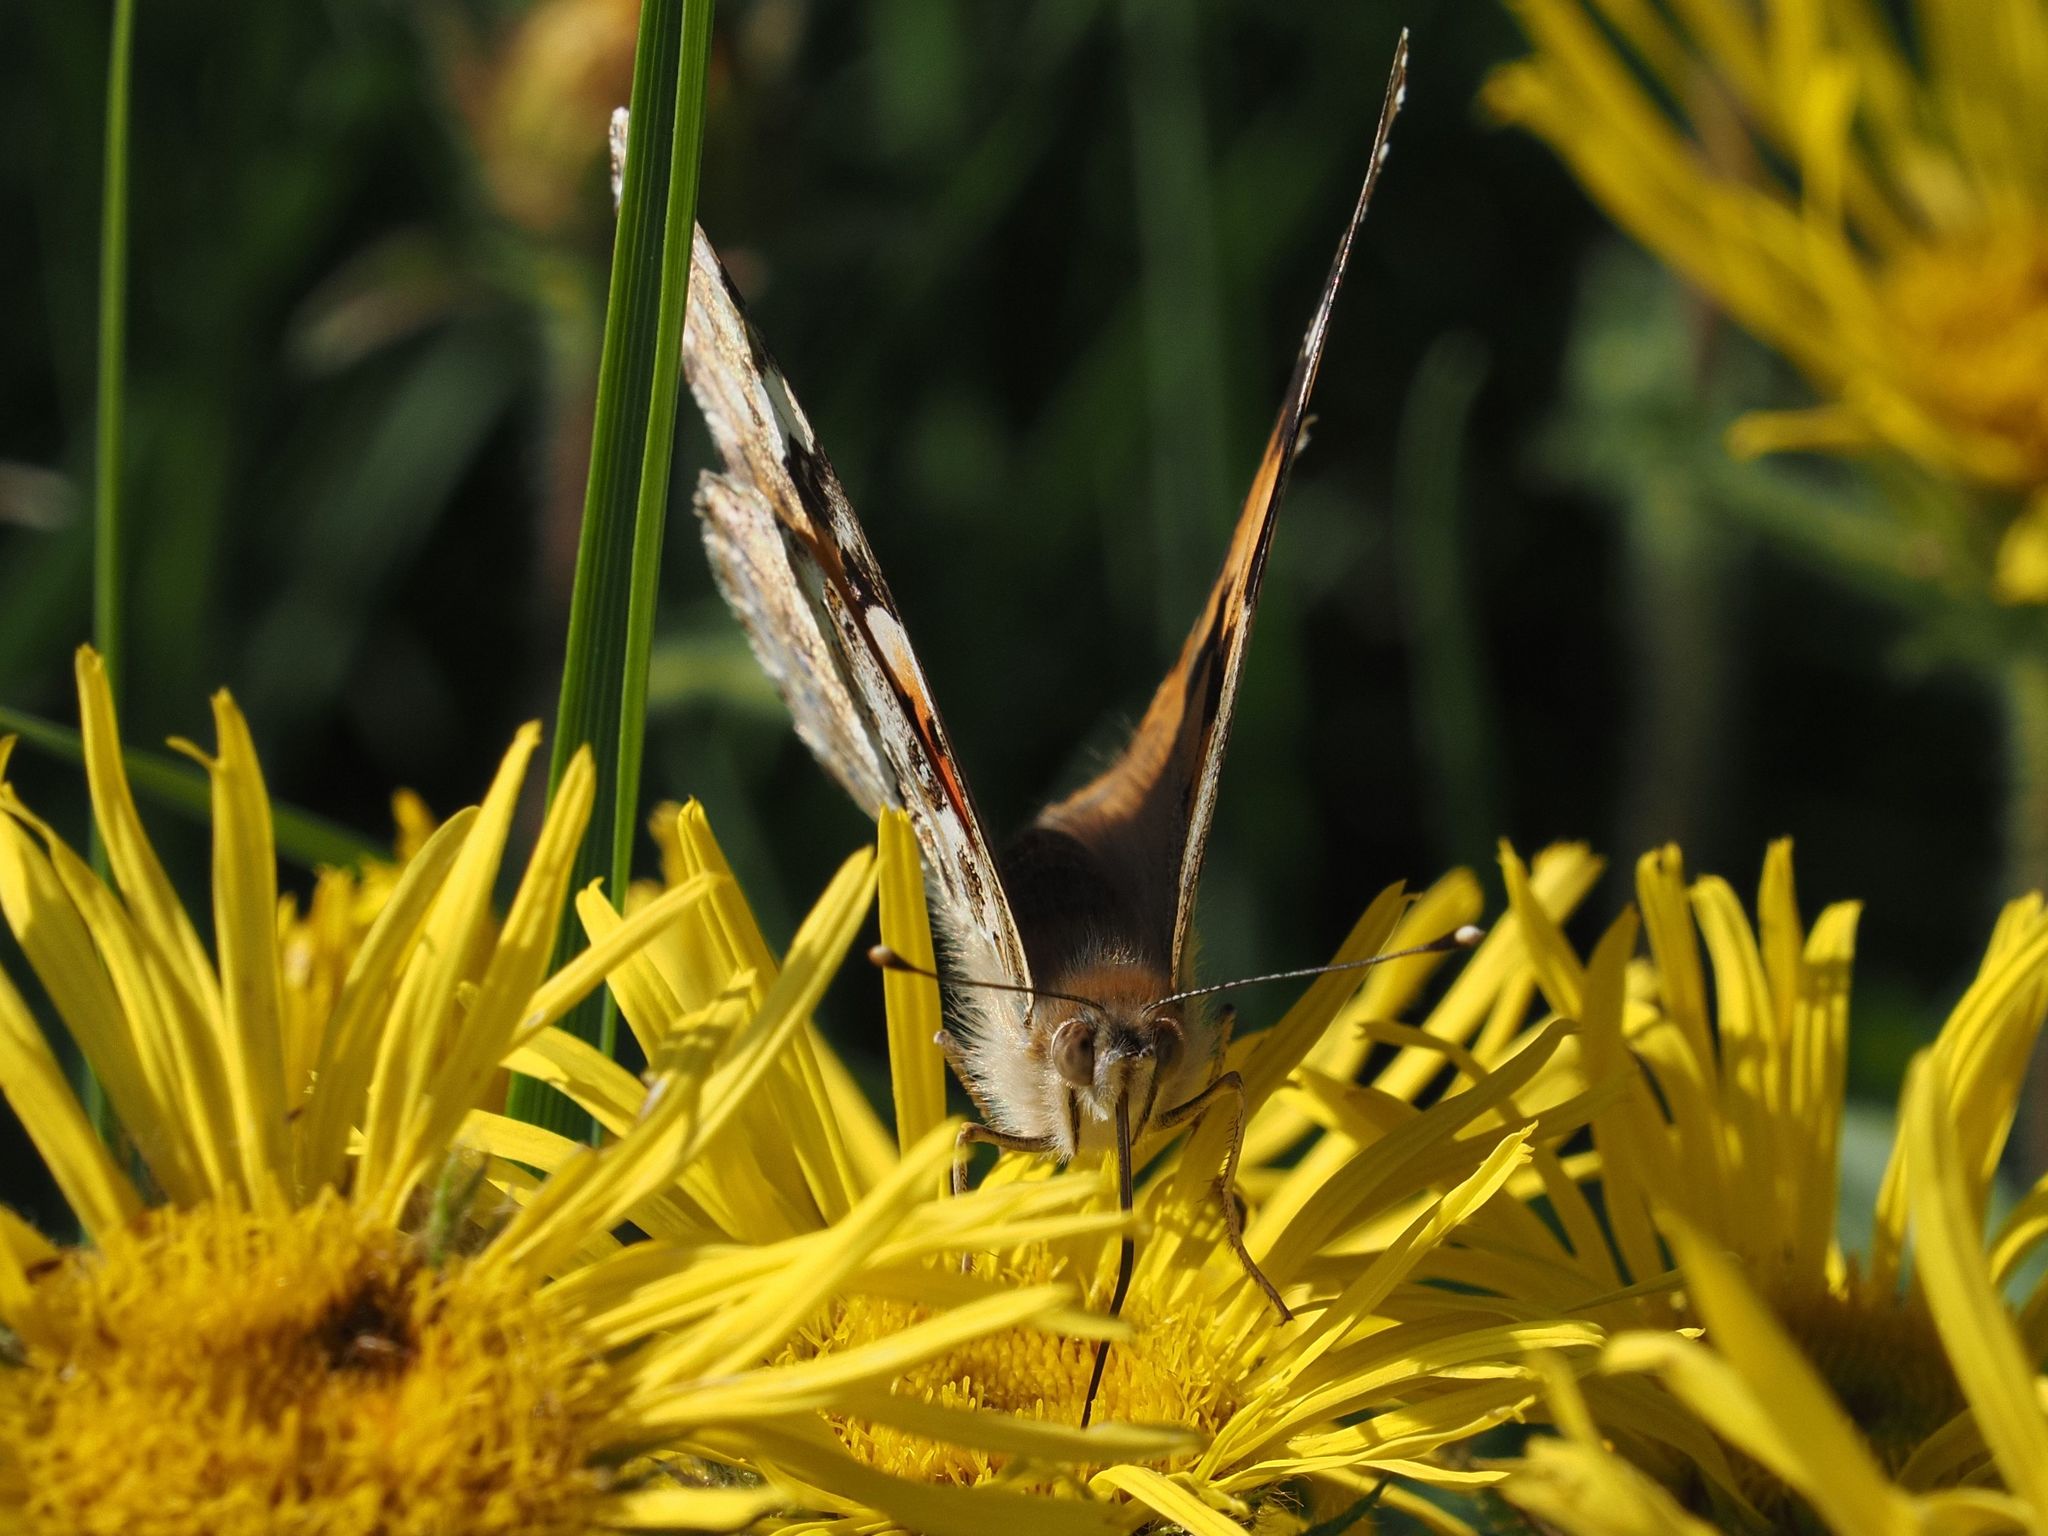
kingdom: Animalia
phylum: Arthropoda
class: Insecta
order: Lepidoptera
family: Nymphalidae
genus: Vanessa
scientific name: Vanessa cardui
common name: Painted lady
